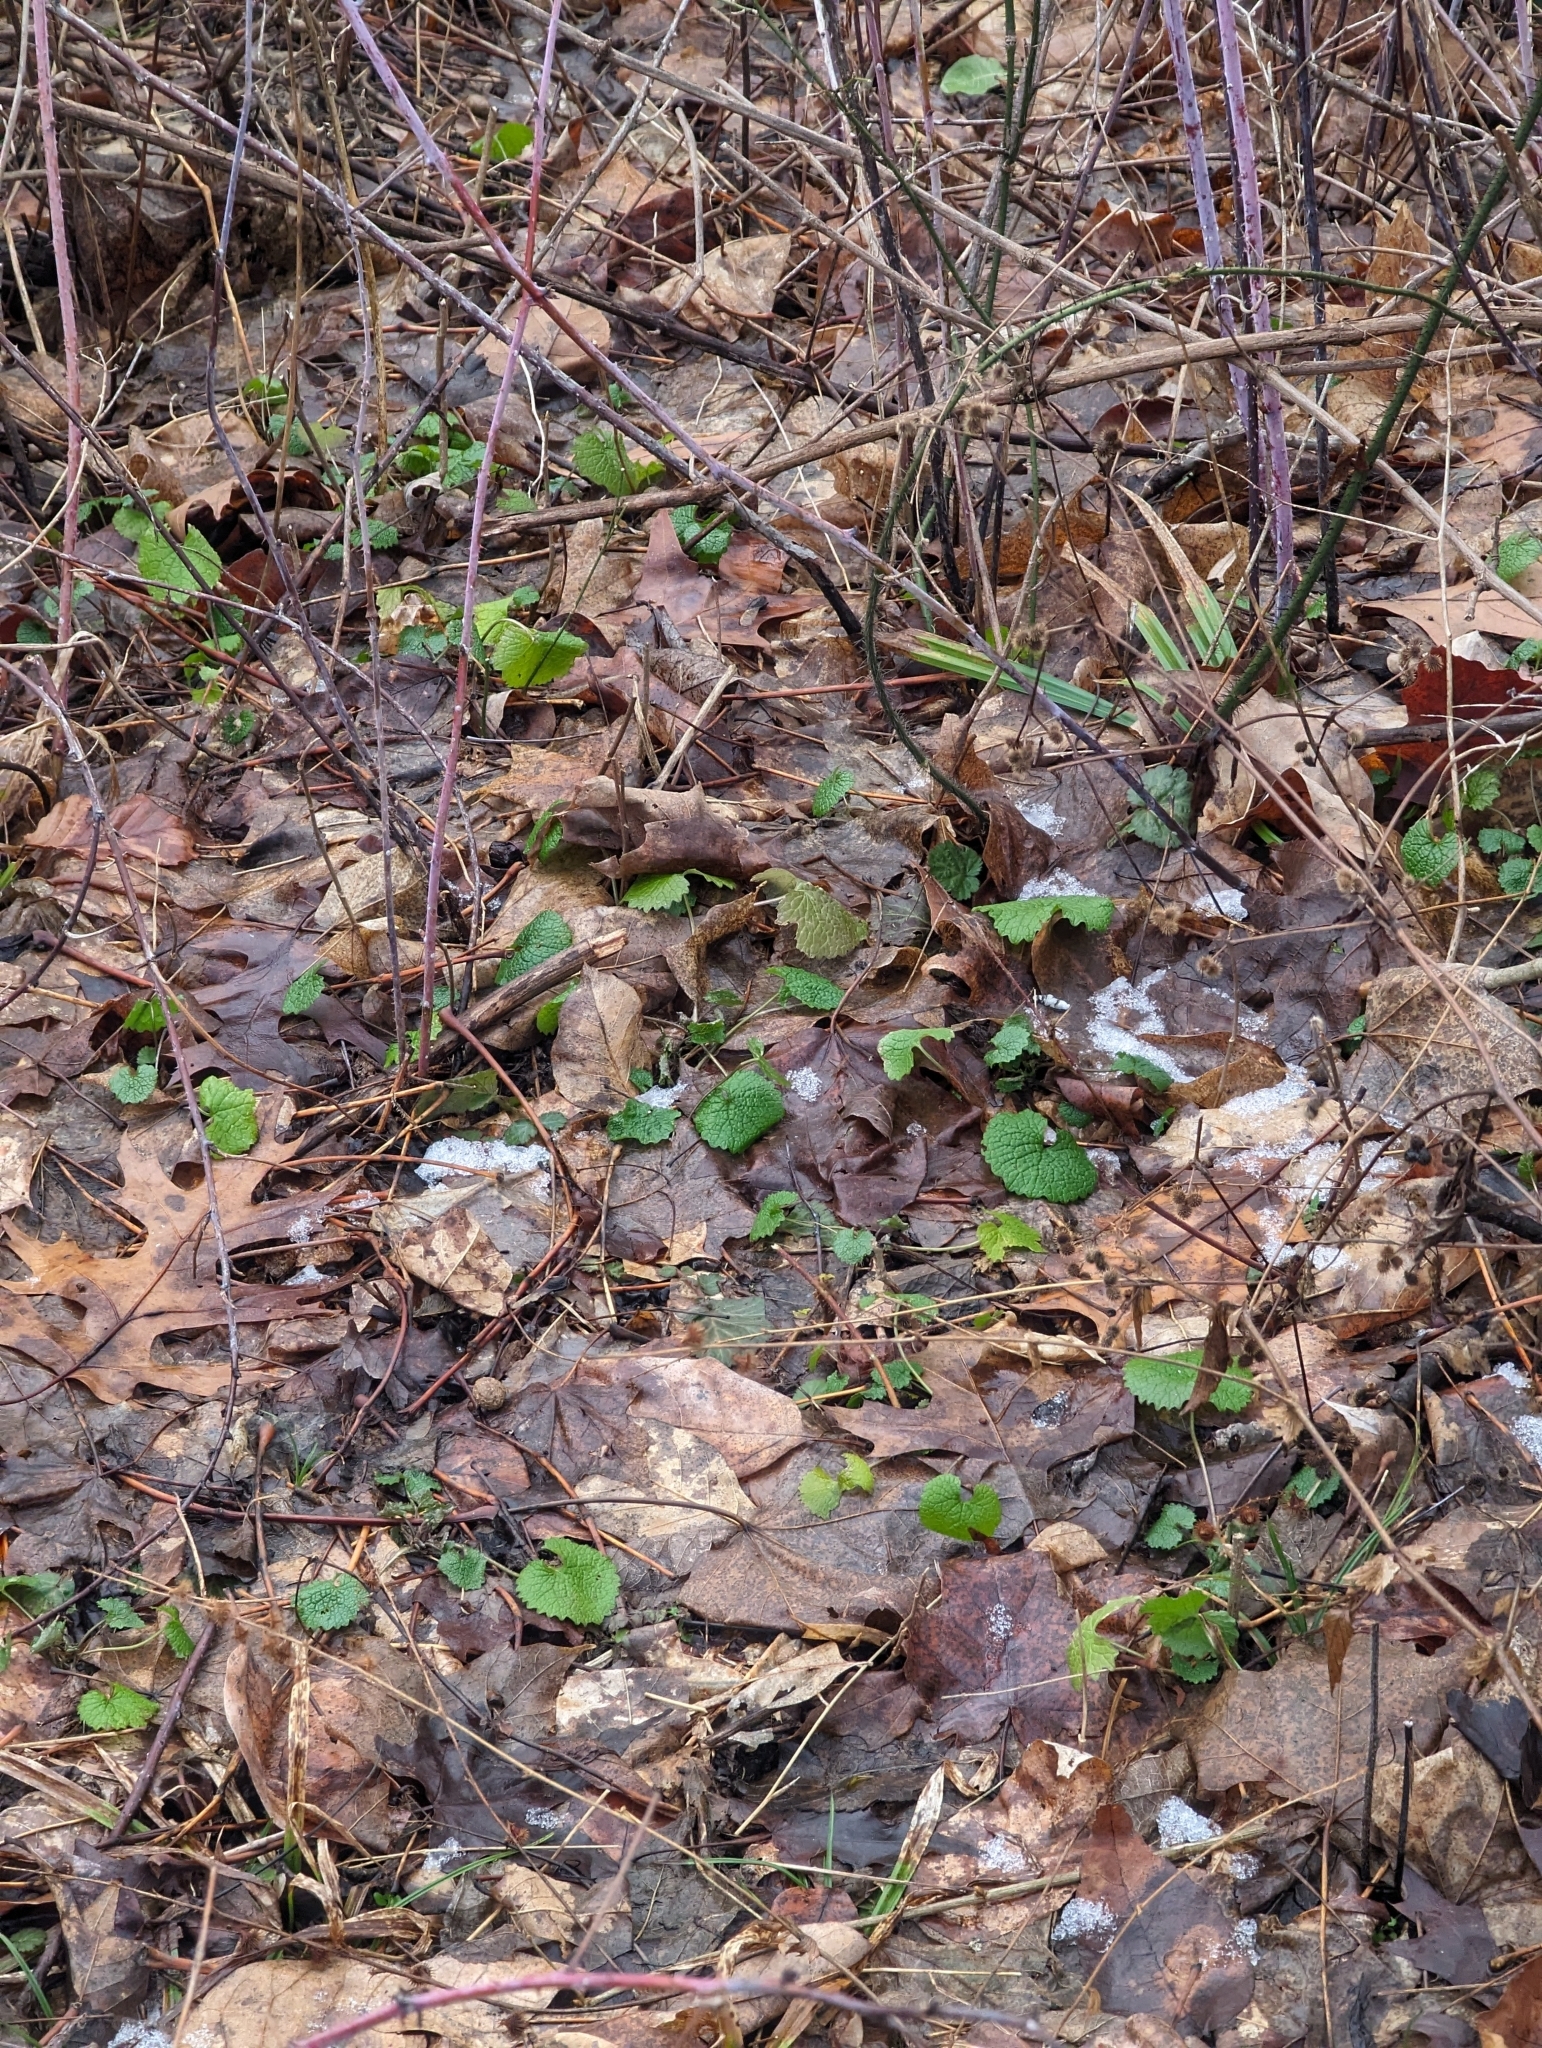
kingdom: Plantae
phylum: Tracheophyta
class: Magnoliopsida
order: Brassicales
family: Brassicaceae
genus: Alliaria
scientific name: Alliaria petiolata
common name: Garlic mustard
